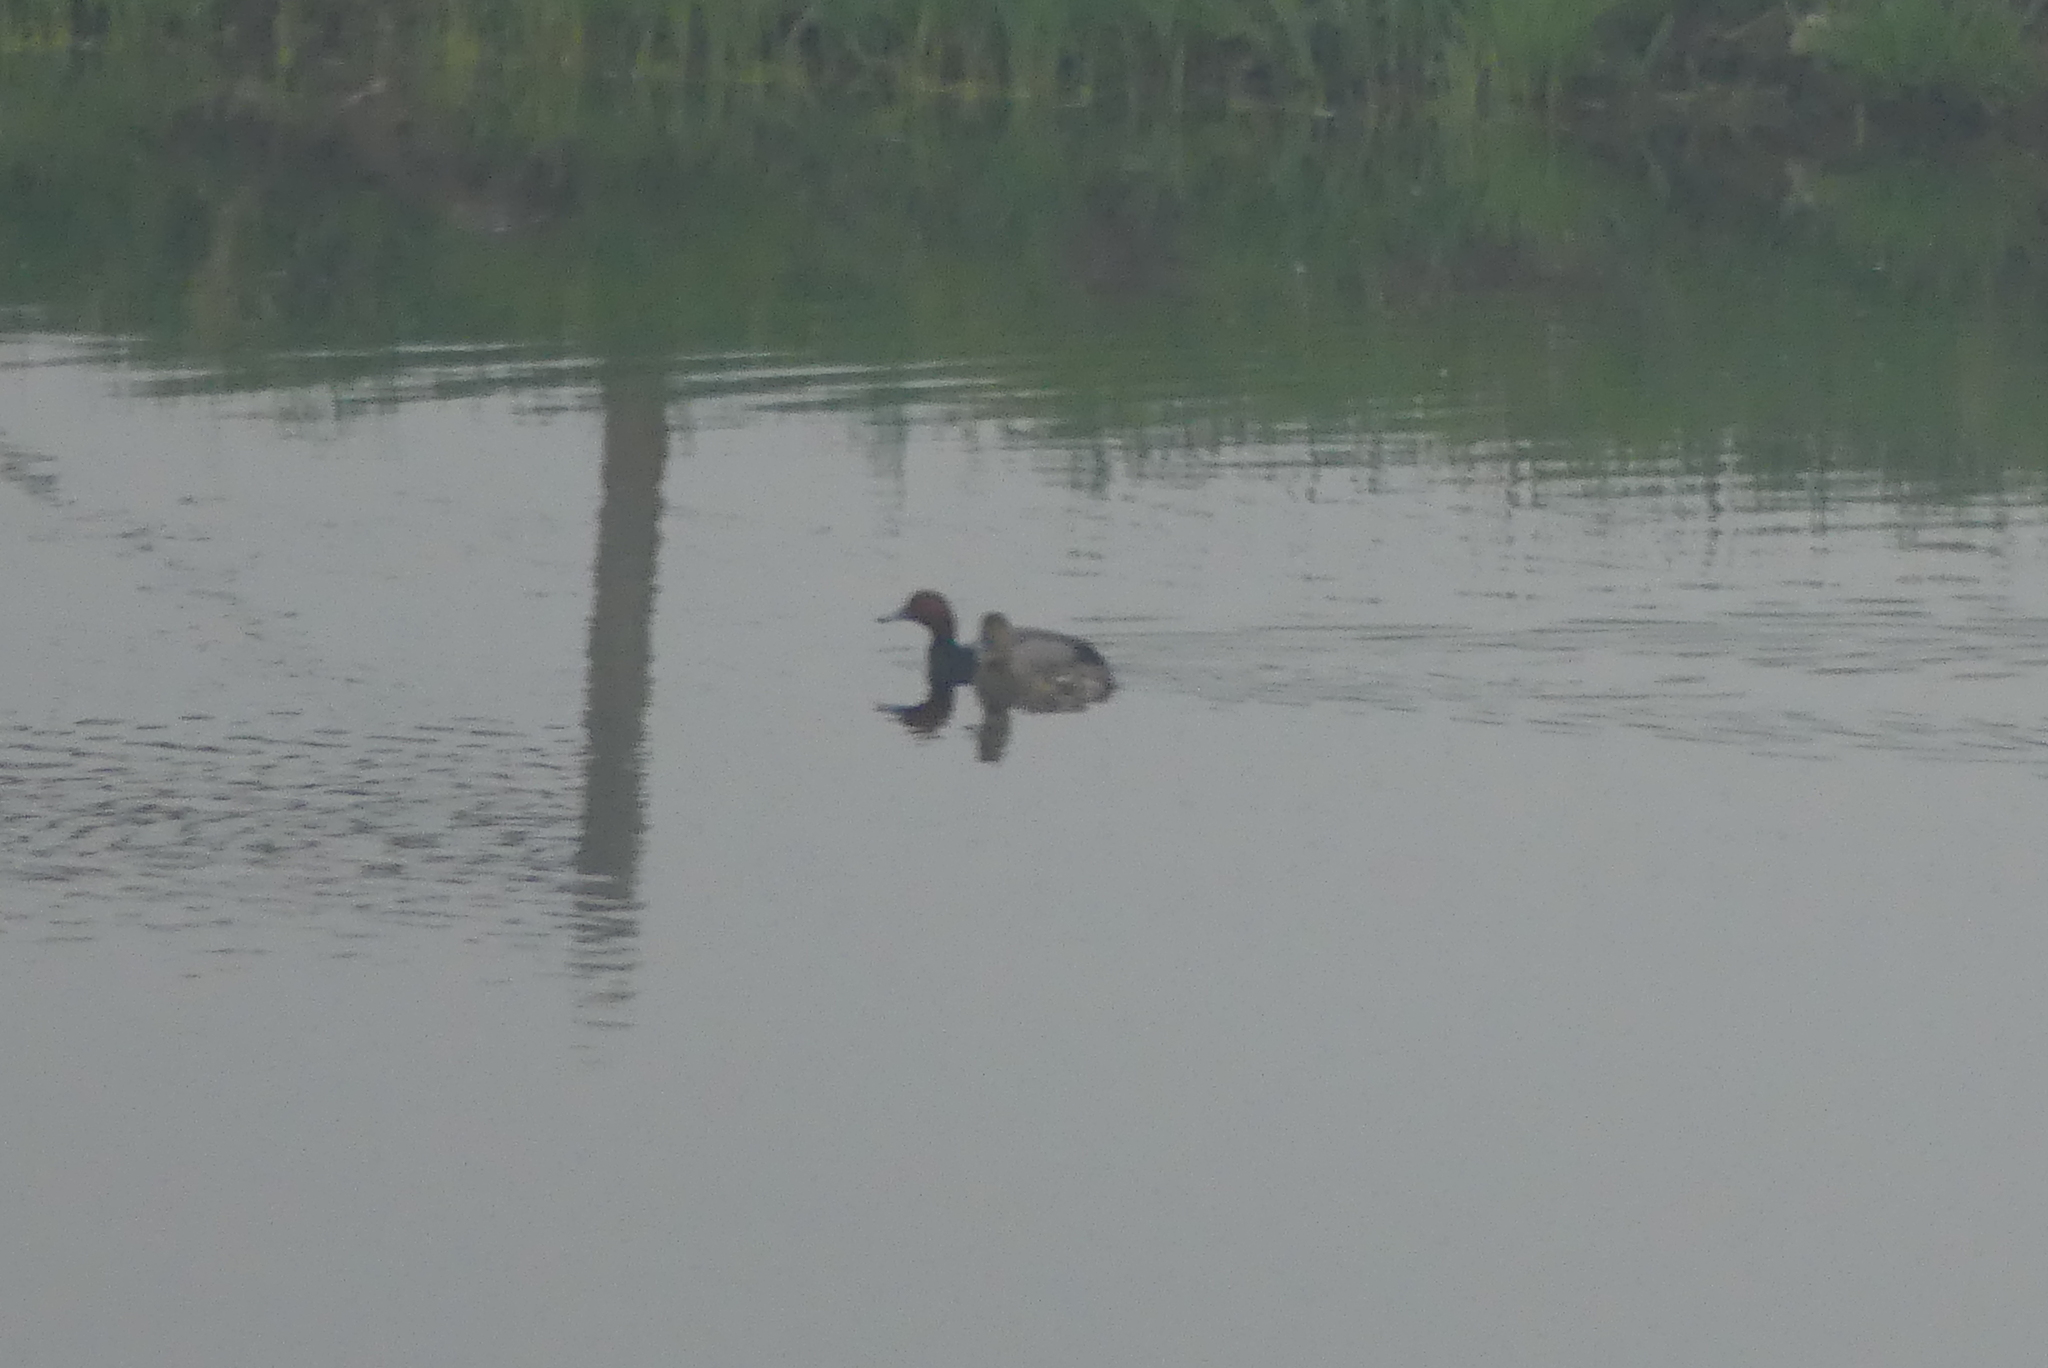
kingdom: Animalia
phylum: Chordata
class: Aves
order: Anseriformes
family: Anatidae
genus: Aythya
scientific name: Aythya americana
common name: Redhead
